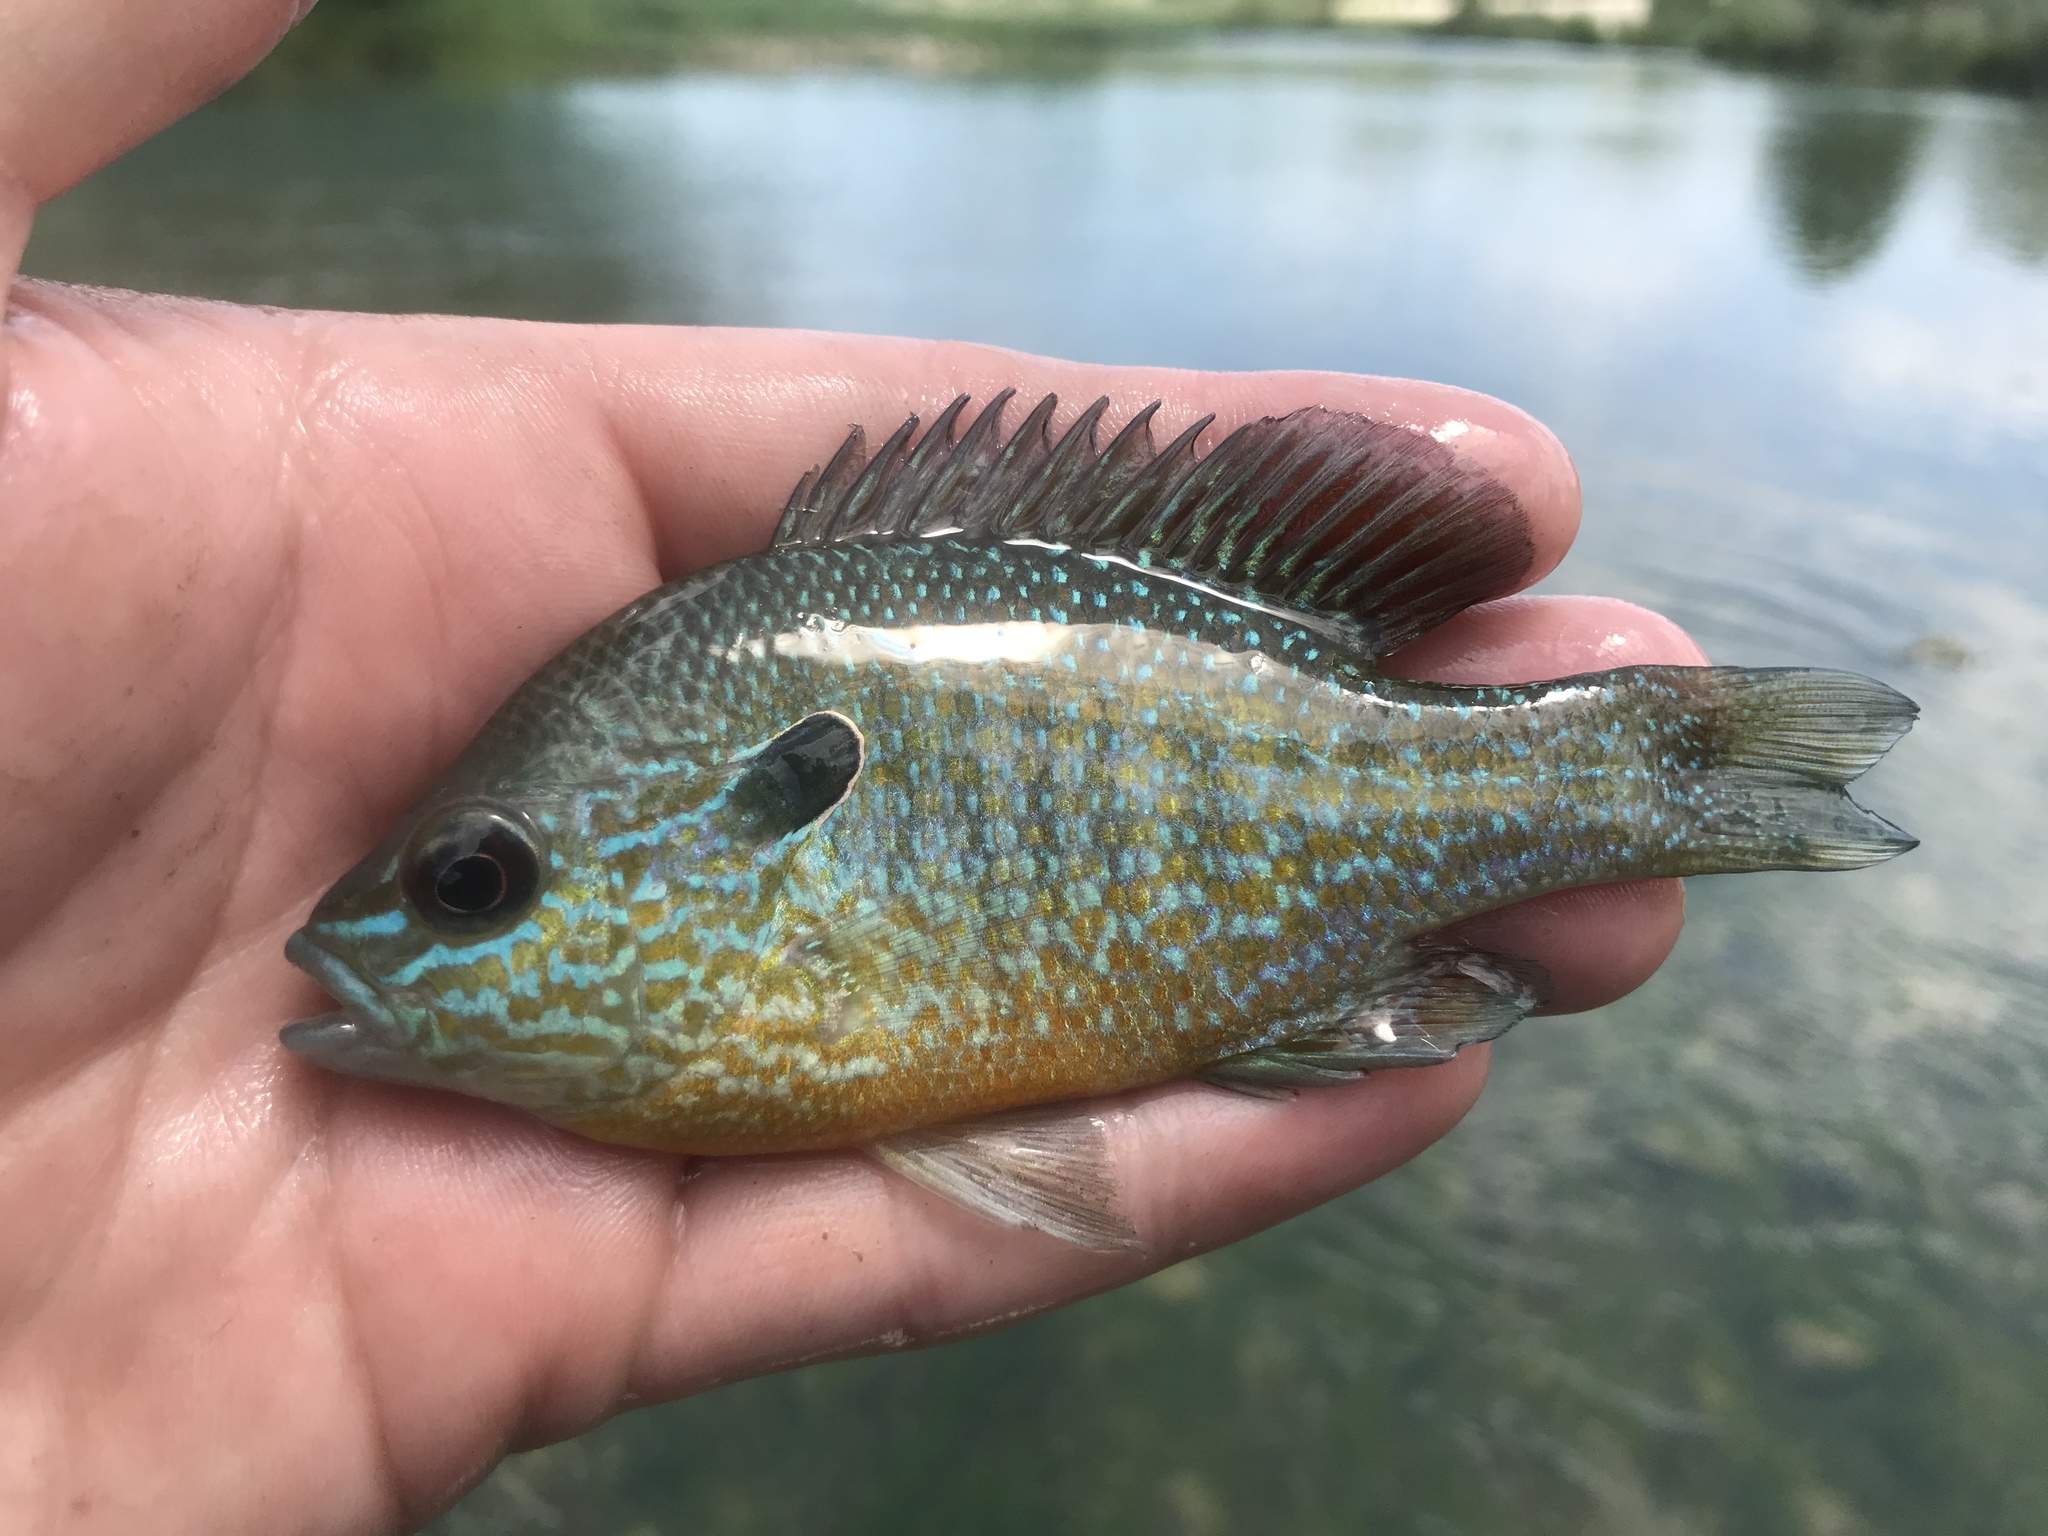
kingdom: Animalia
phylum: Chordata
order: Perciformes
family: Centrarchidae
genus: Lepomis
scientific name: Lepomis megalotis
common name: Longear sunfish
